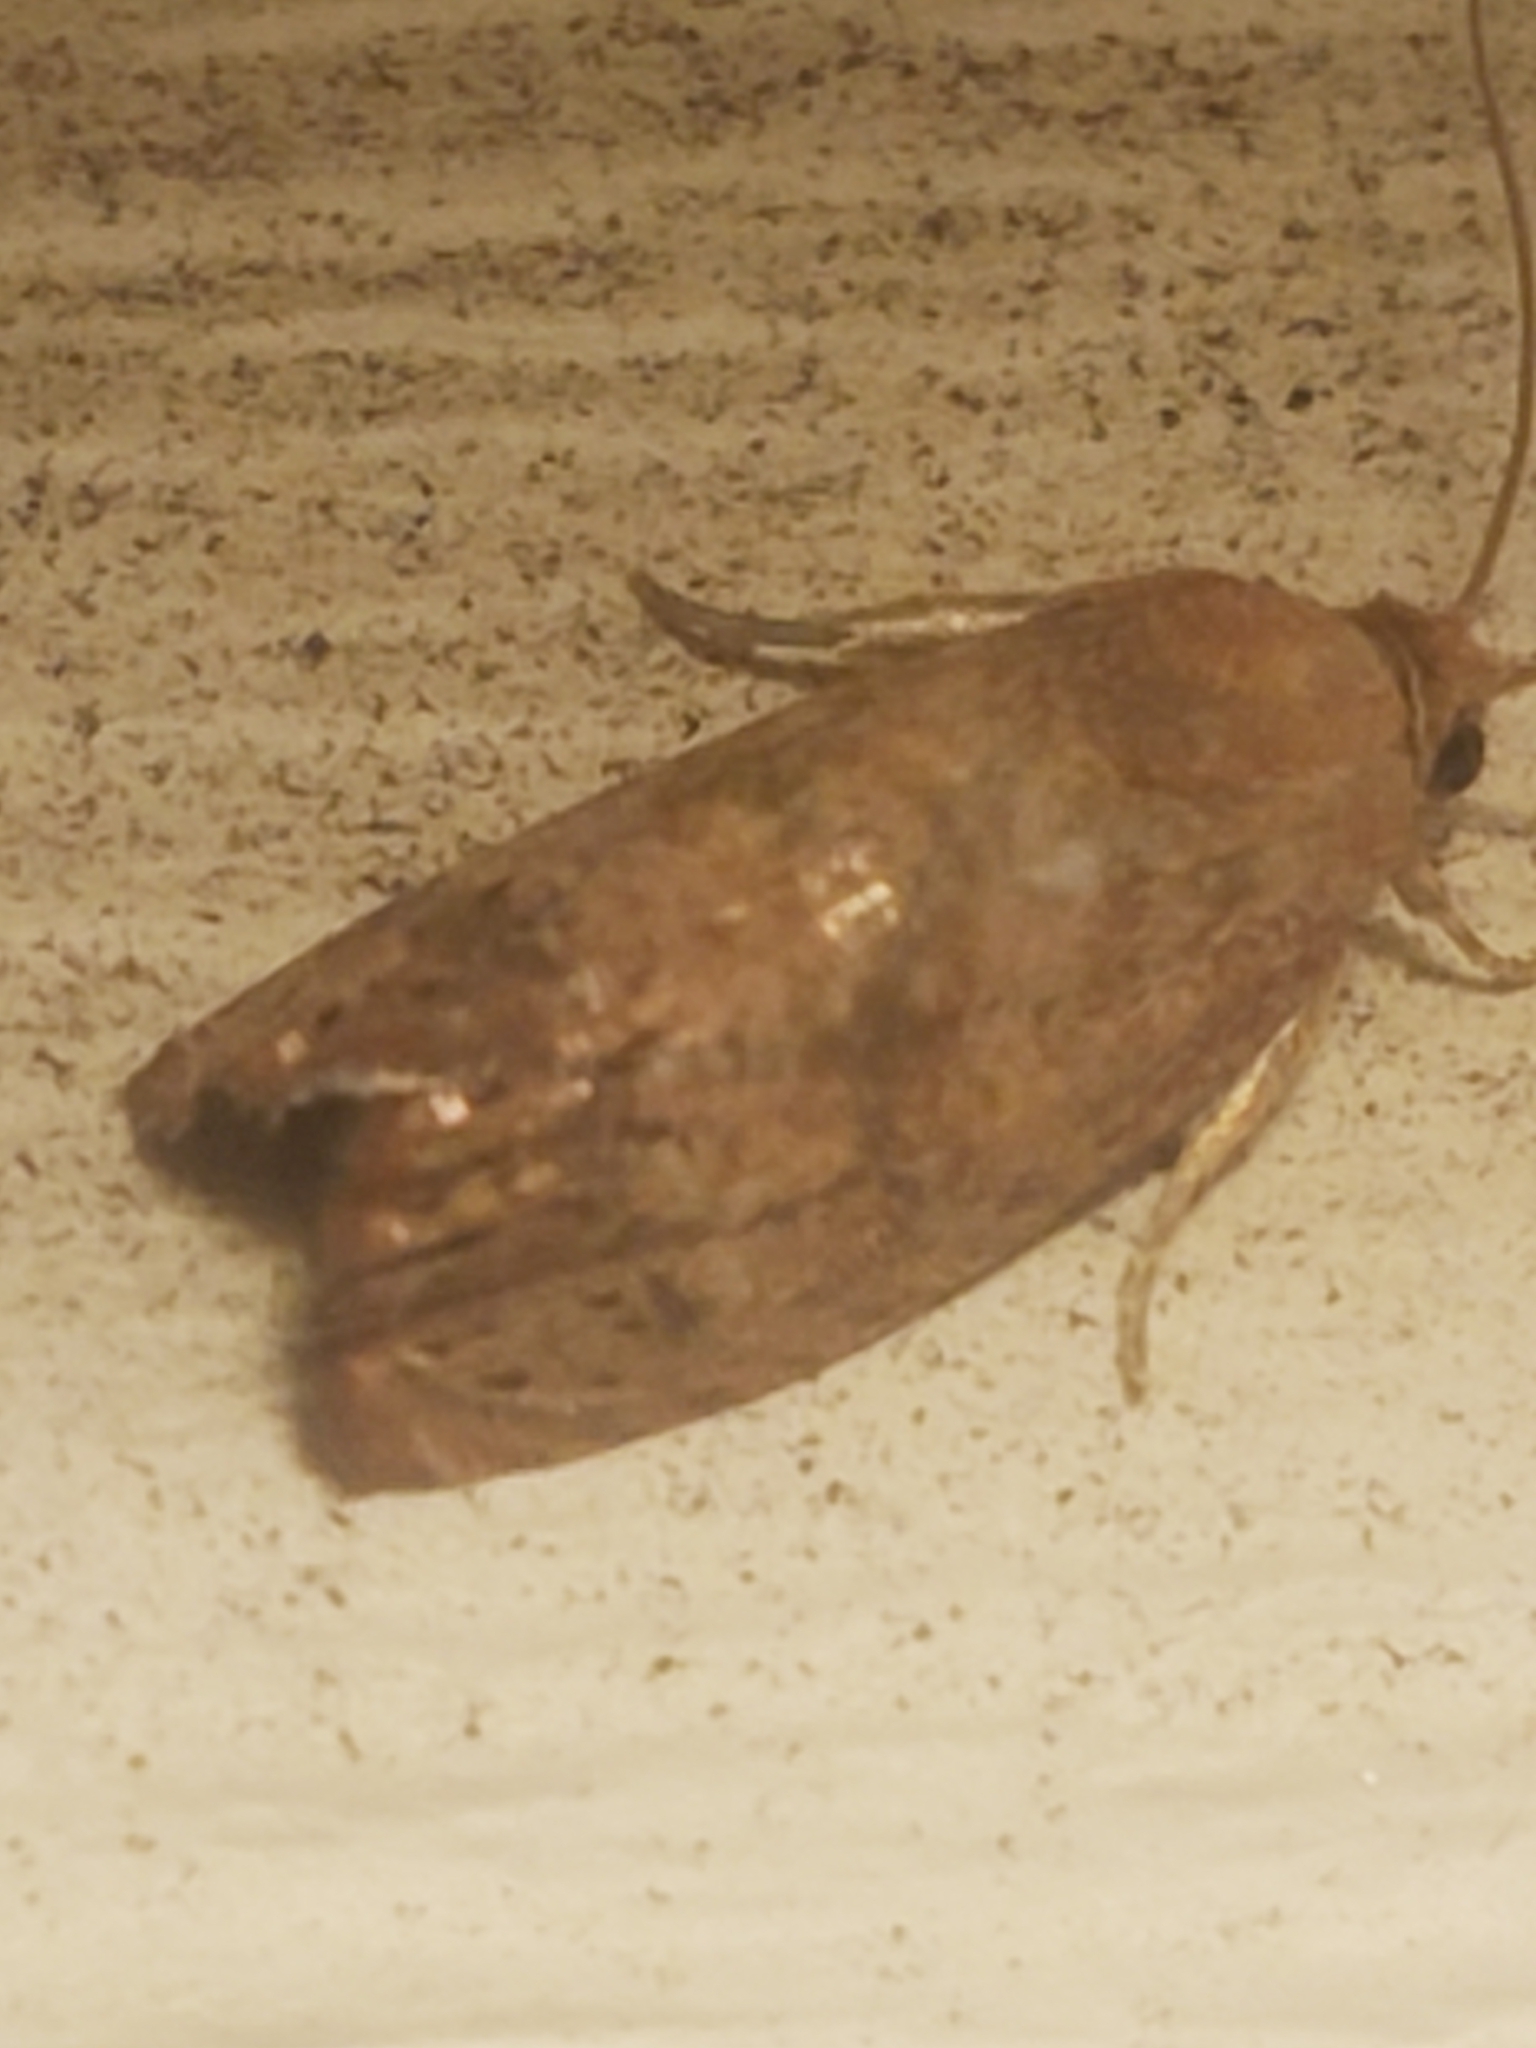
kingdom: Animalia
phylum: Arthropoda
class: Insecta
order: Lepidoptera
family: Tortricidae
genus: Cydia
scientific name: Cydia latiferreana
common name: Filbertworm moth
